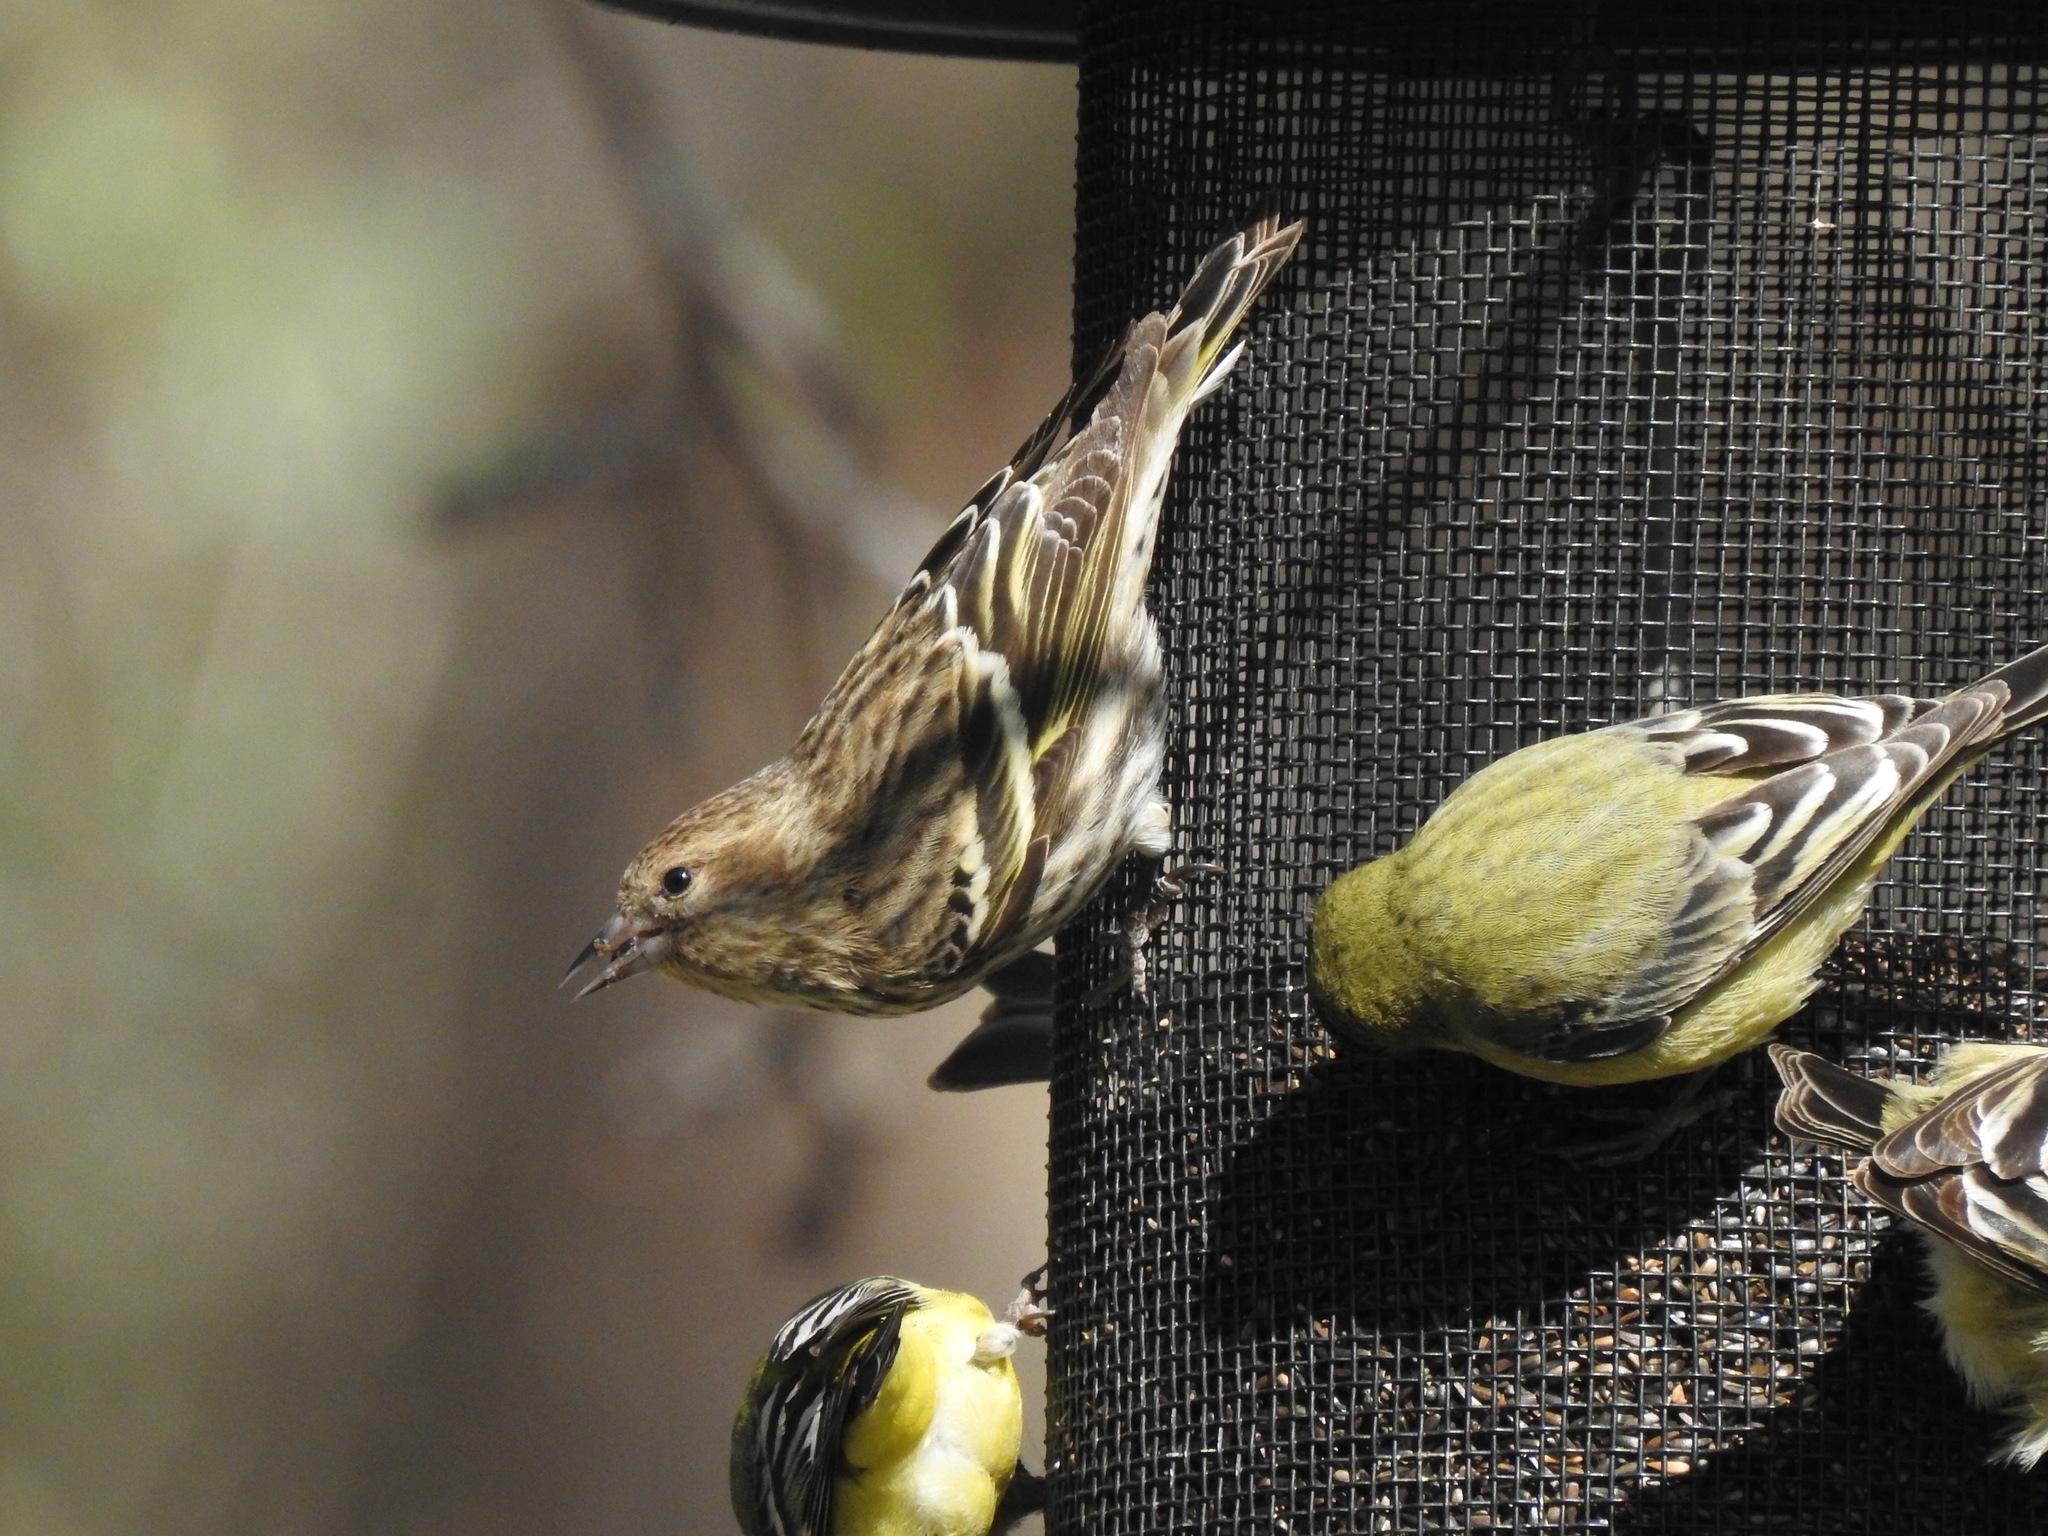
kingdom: Animalia
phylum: Chordata
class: Aves
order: Passeriformes
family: Fringillidae
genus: Spinus
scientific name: Spinus pinus
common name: Pine siskin
